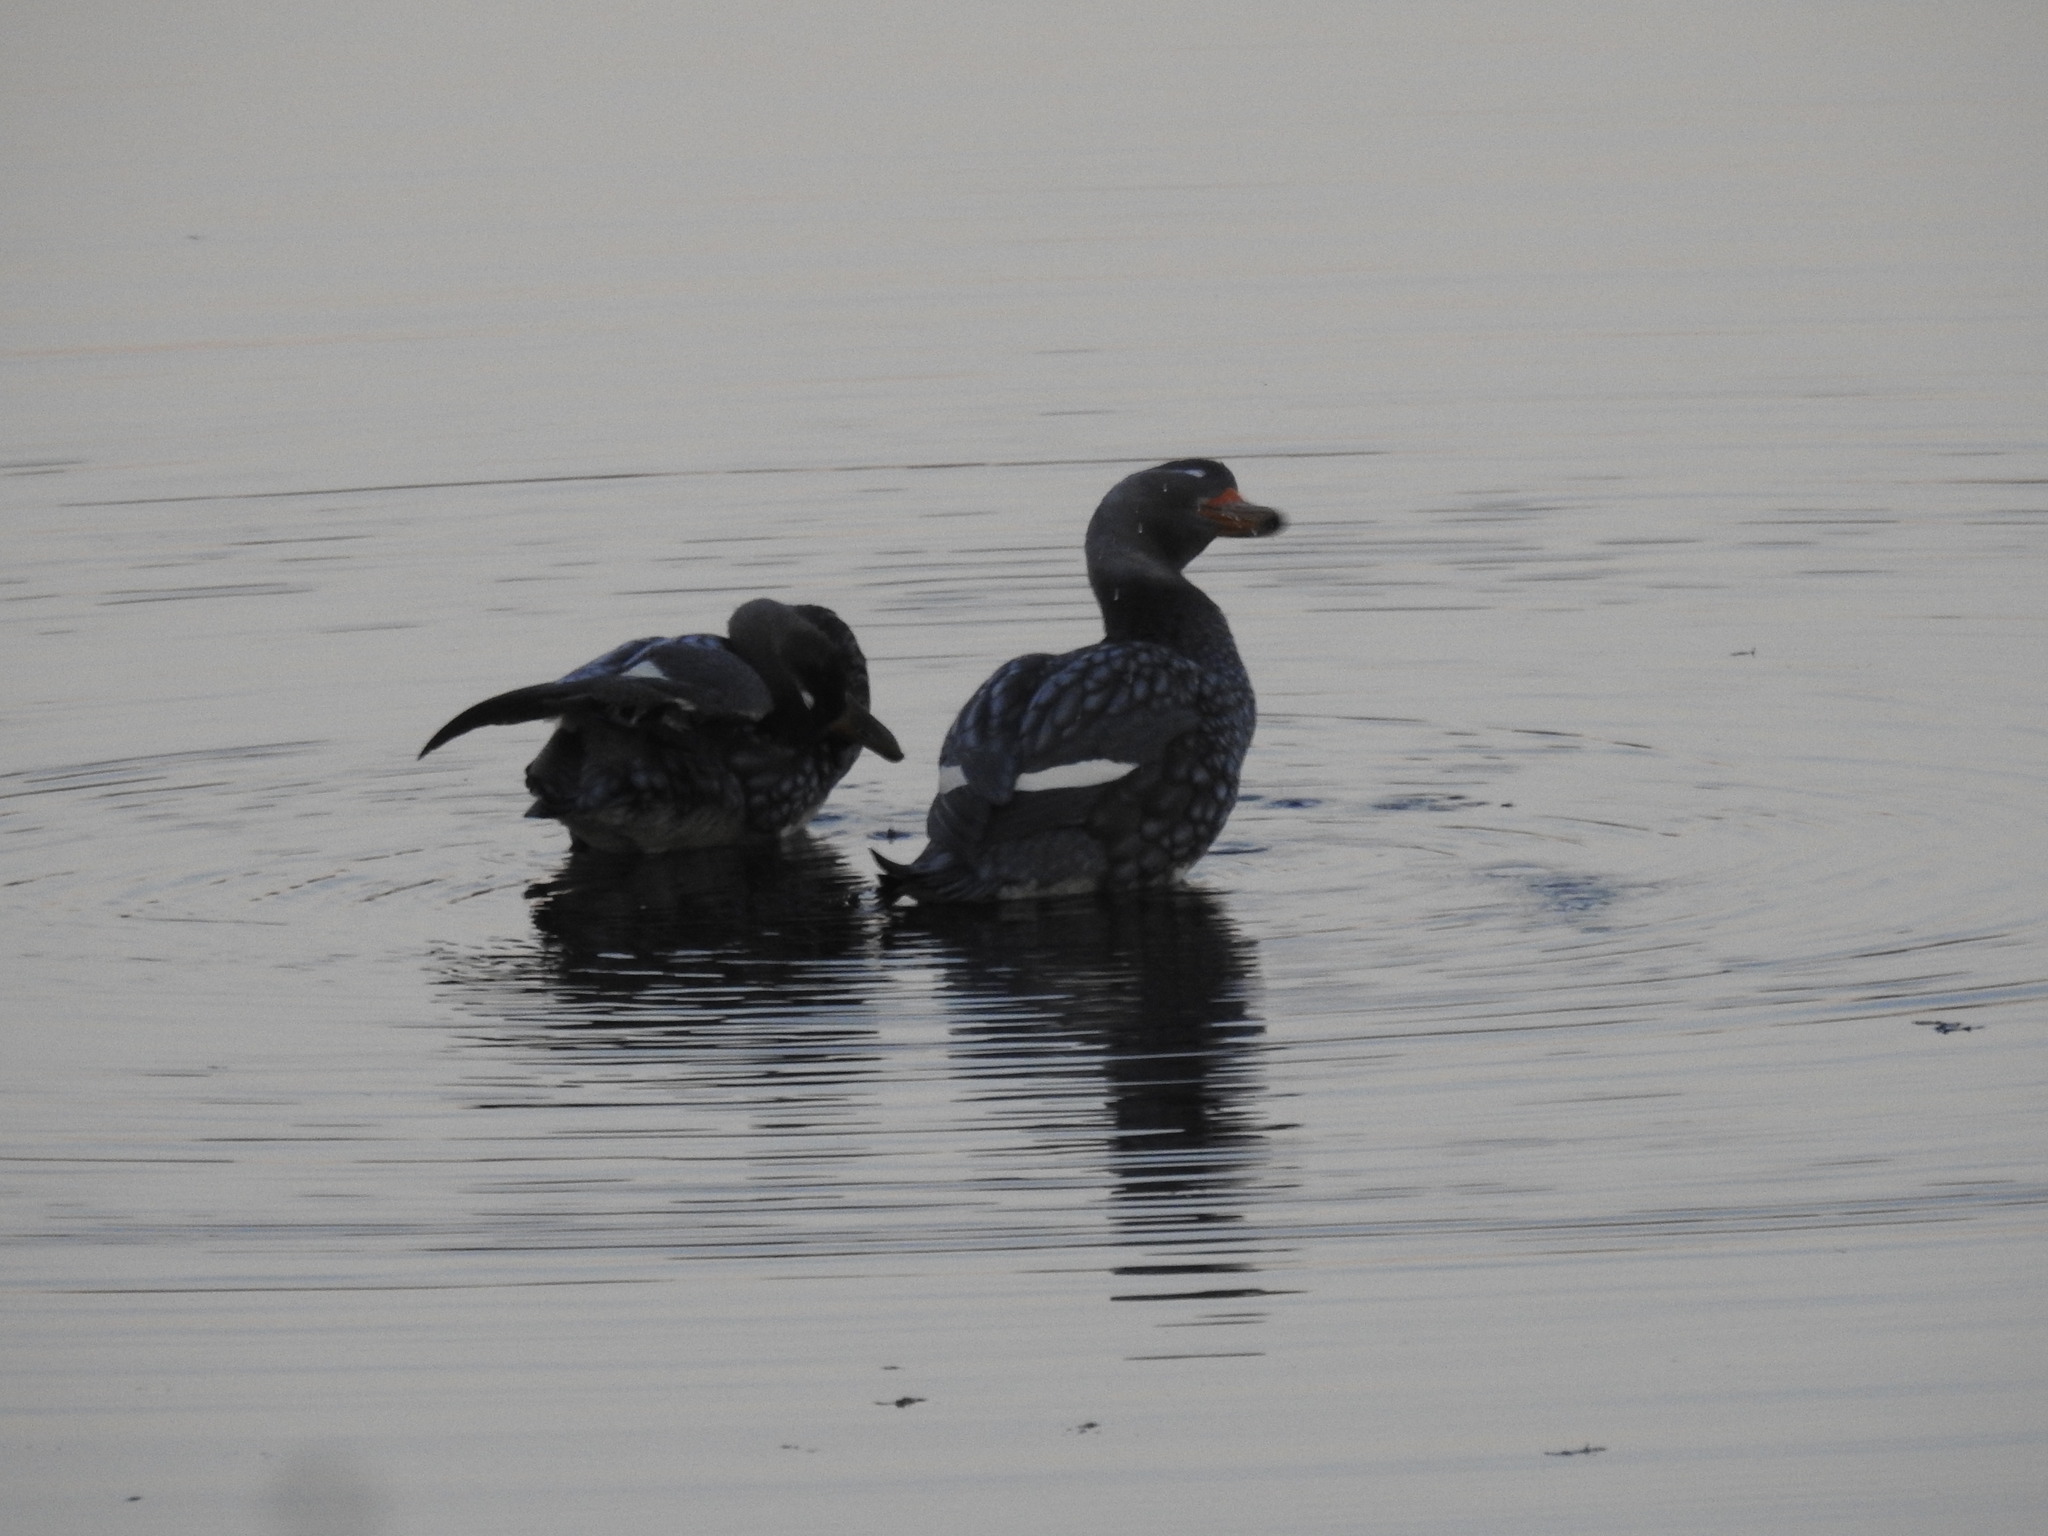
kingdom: Animalia
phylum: Chordata
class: Aves
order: Anseriformes
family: Anatidae
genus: Tachyeres
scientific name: Tachyeres patachonicus
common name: Flying steamer duck
